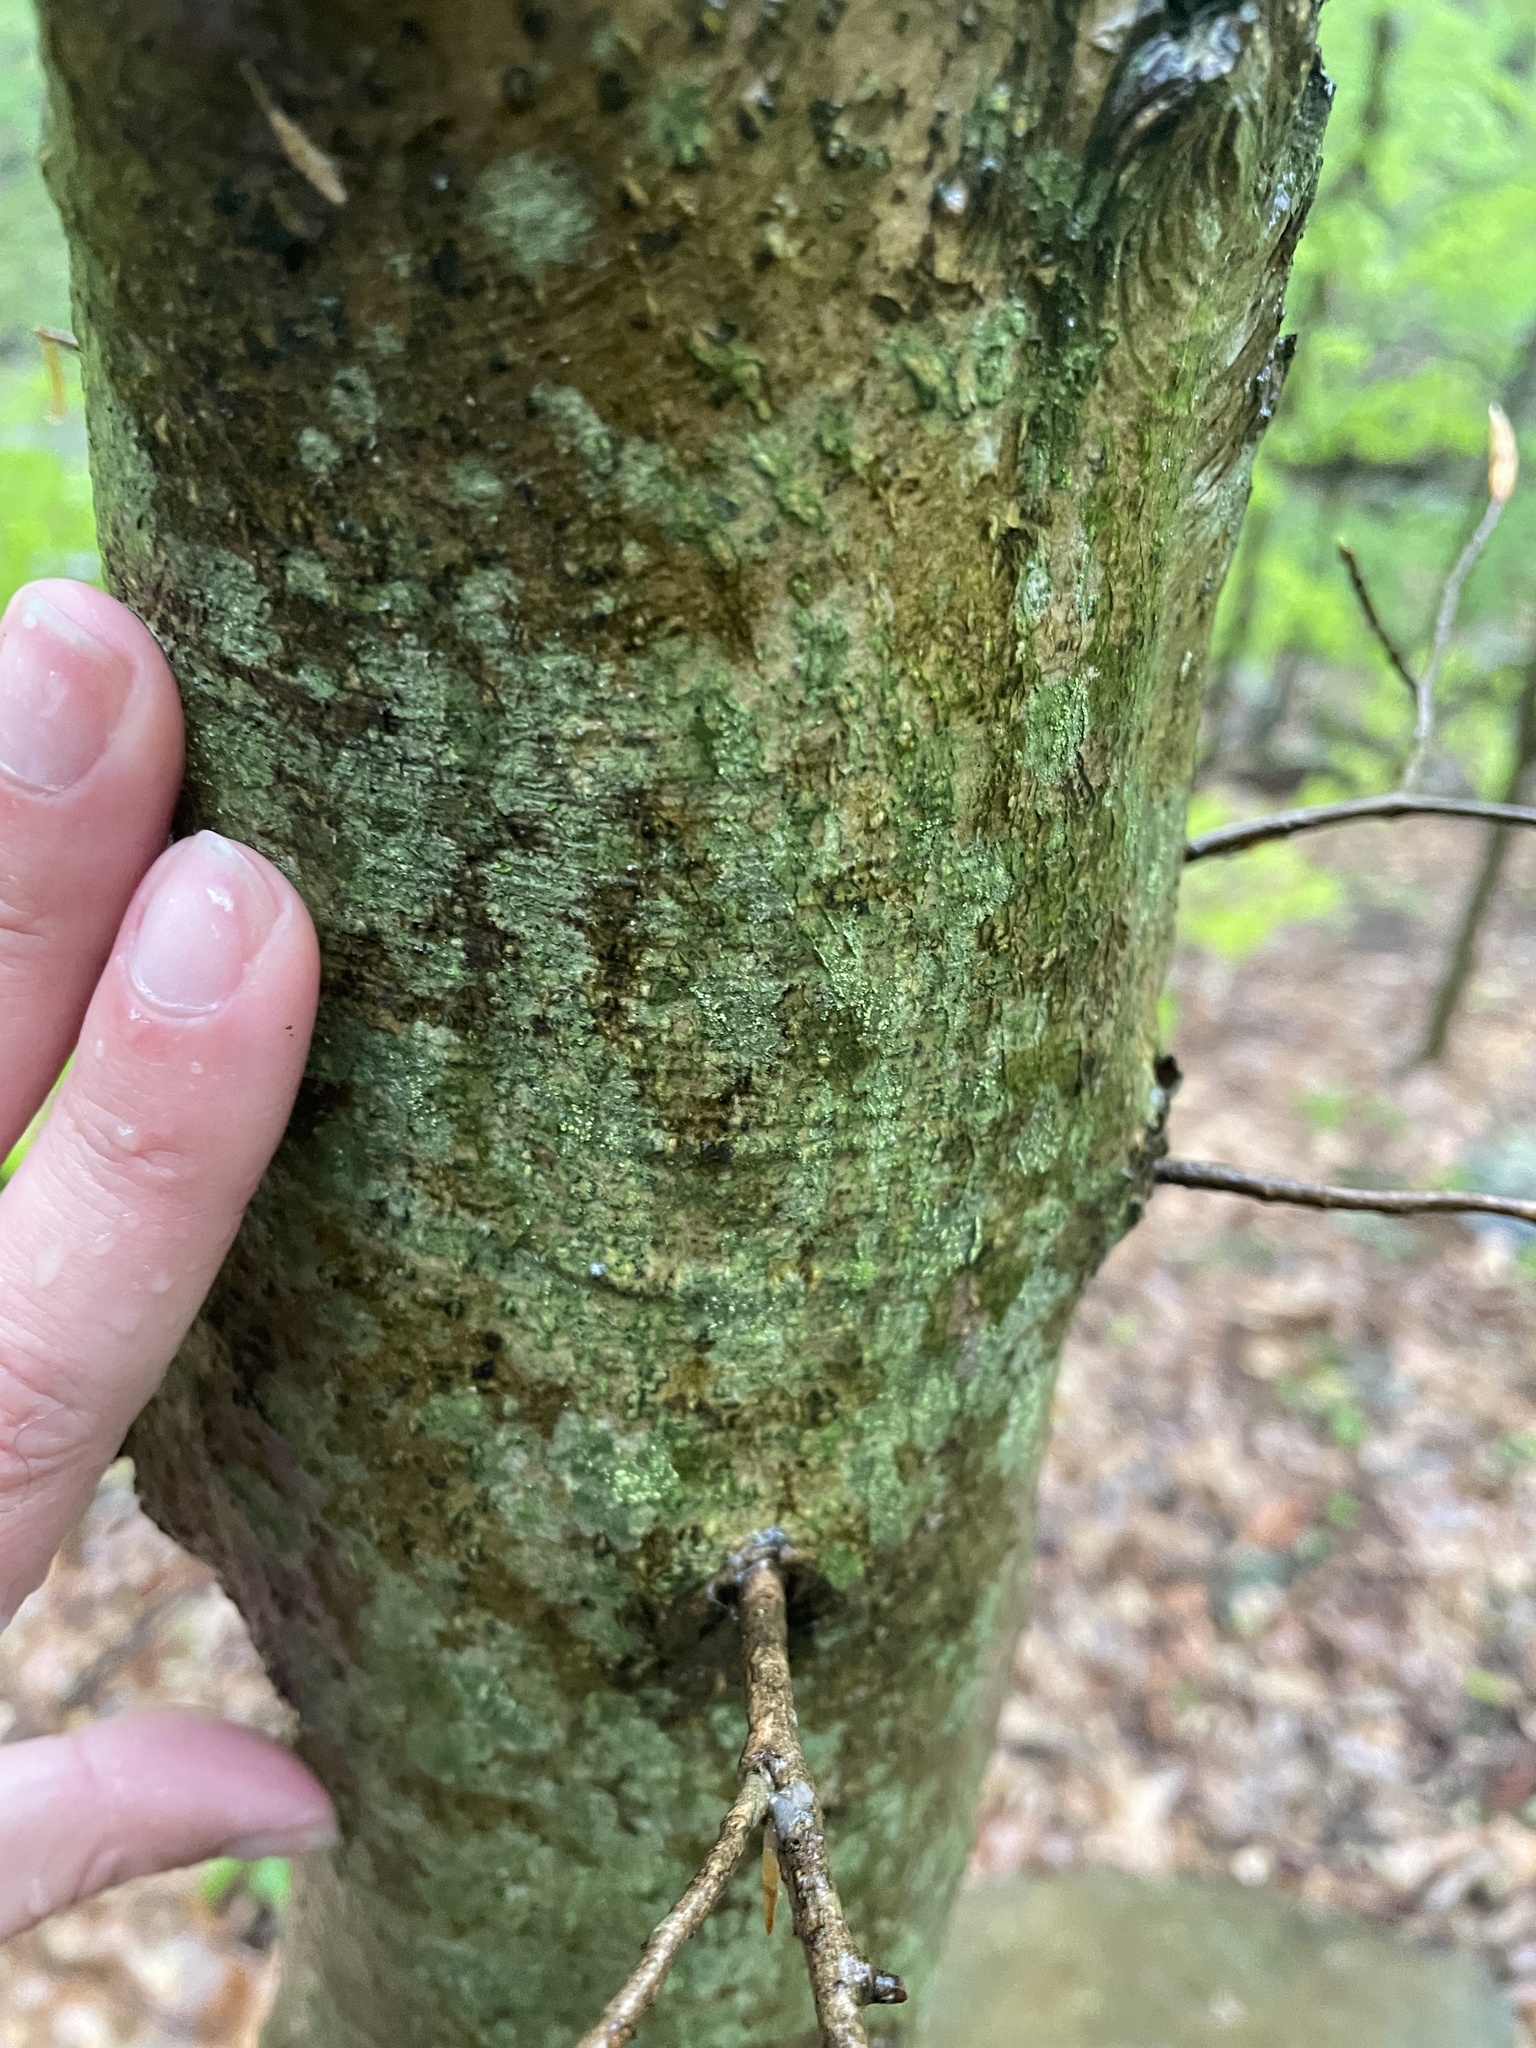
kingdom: Plantae
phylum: Tracheophyta
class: Magnoliopsida
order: Fagales
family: Fagaceae
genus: Fagus
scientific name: Fagus grandifolia
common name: American beech
